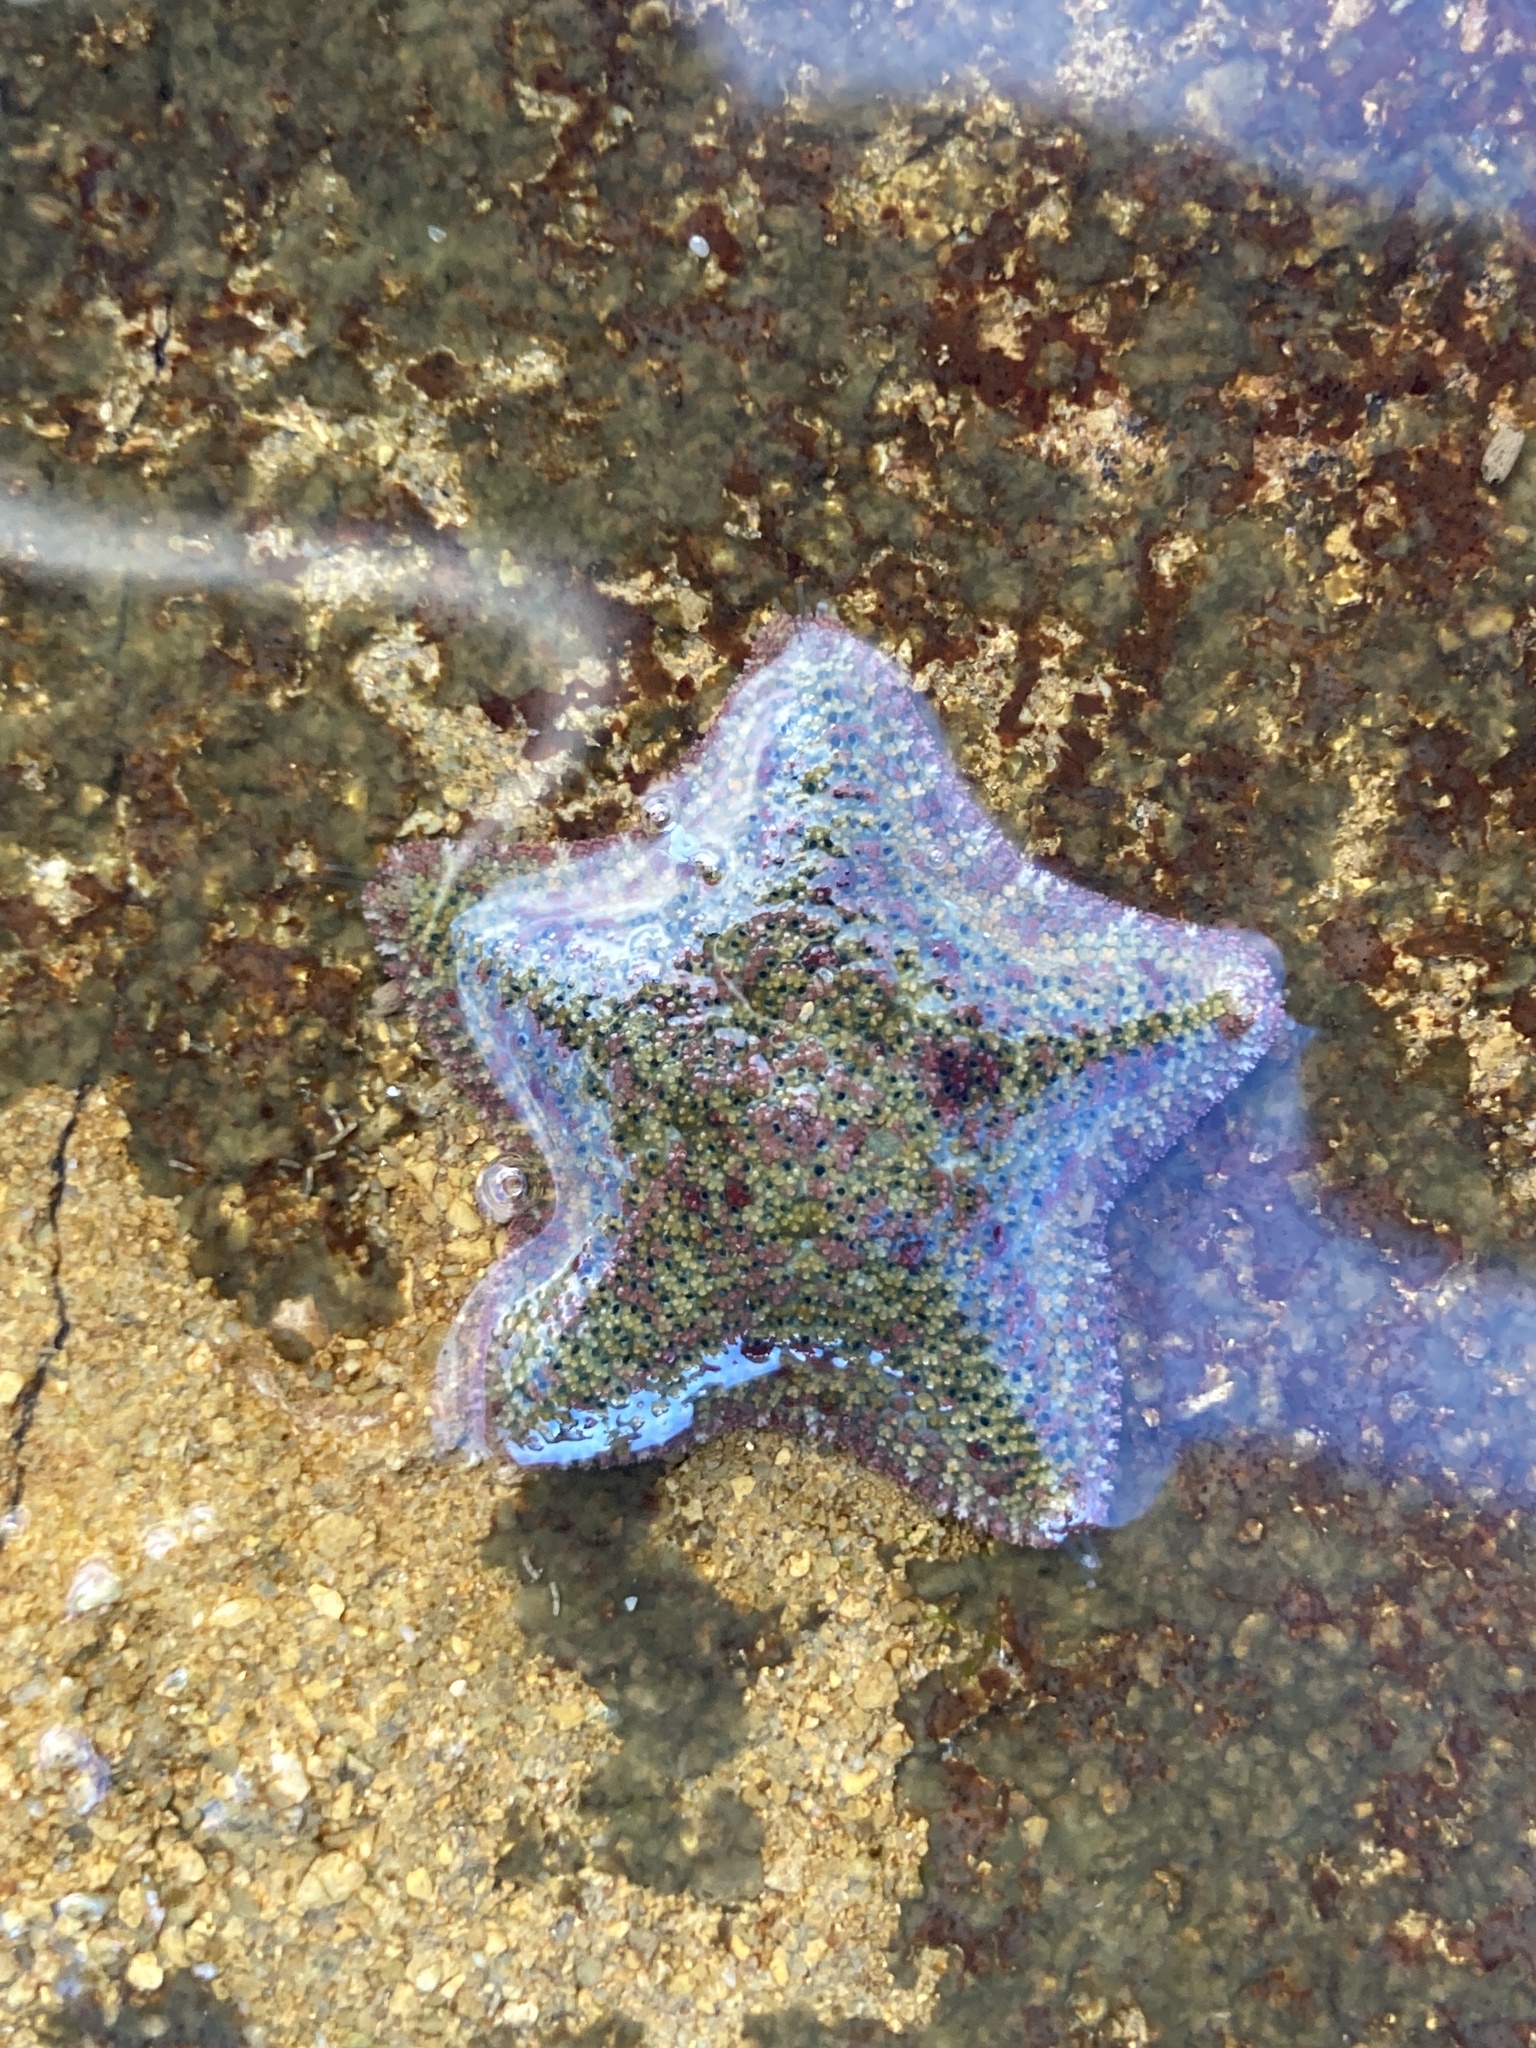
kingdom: Animalia
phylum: Echinodermata
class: Asteroidea
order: Valvatida
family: Asterinidae
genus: Parvulastra
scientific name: Parvulastra exigua
